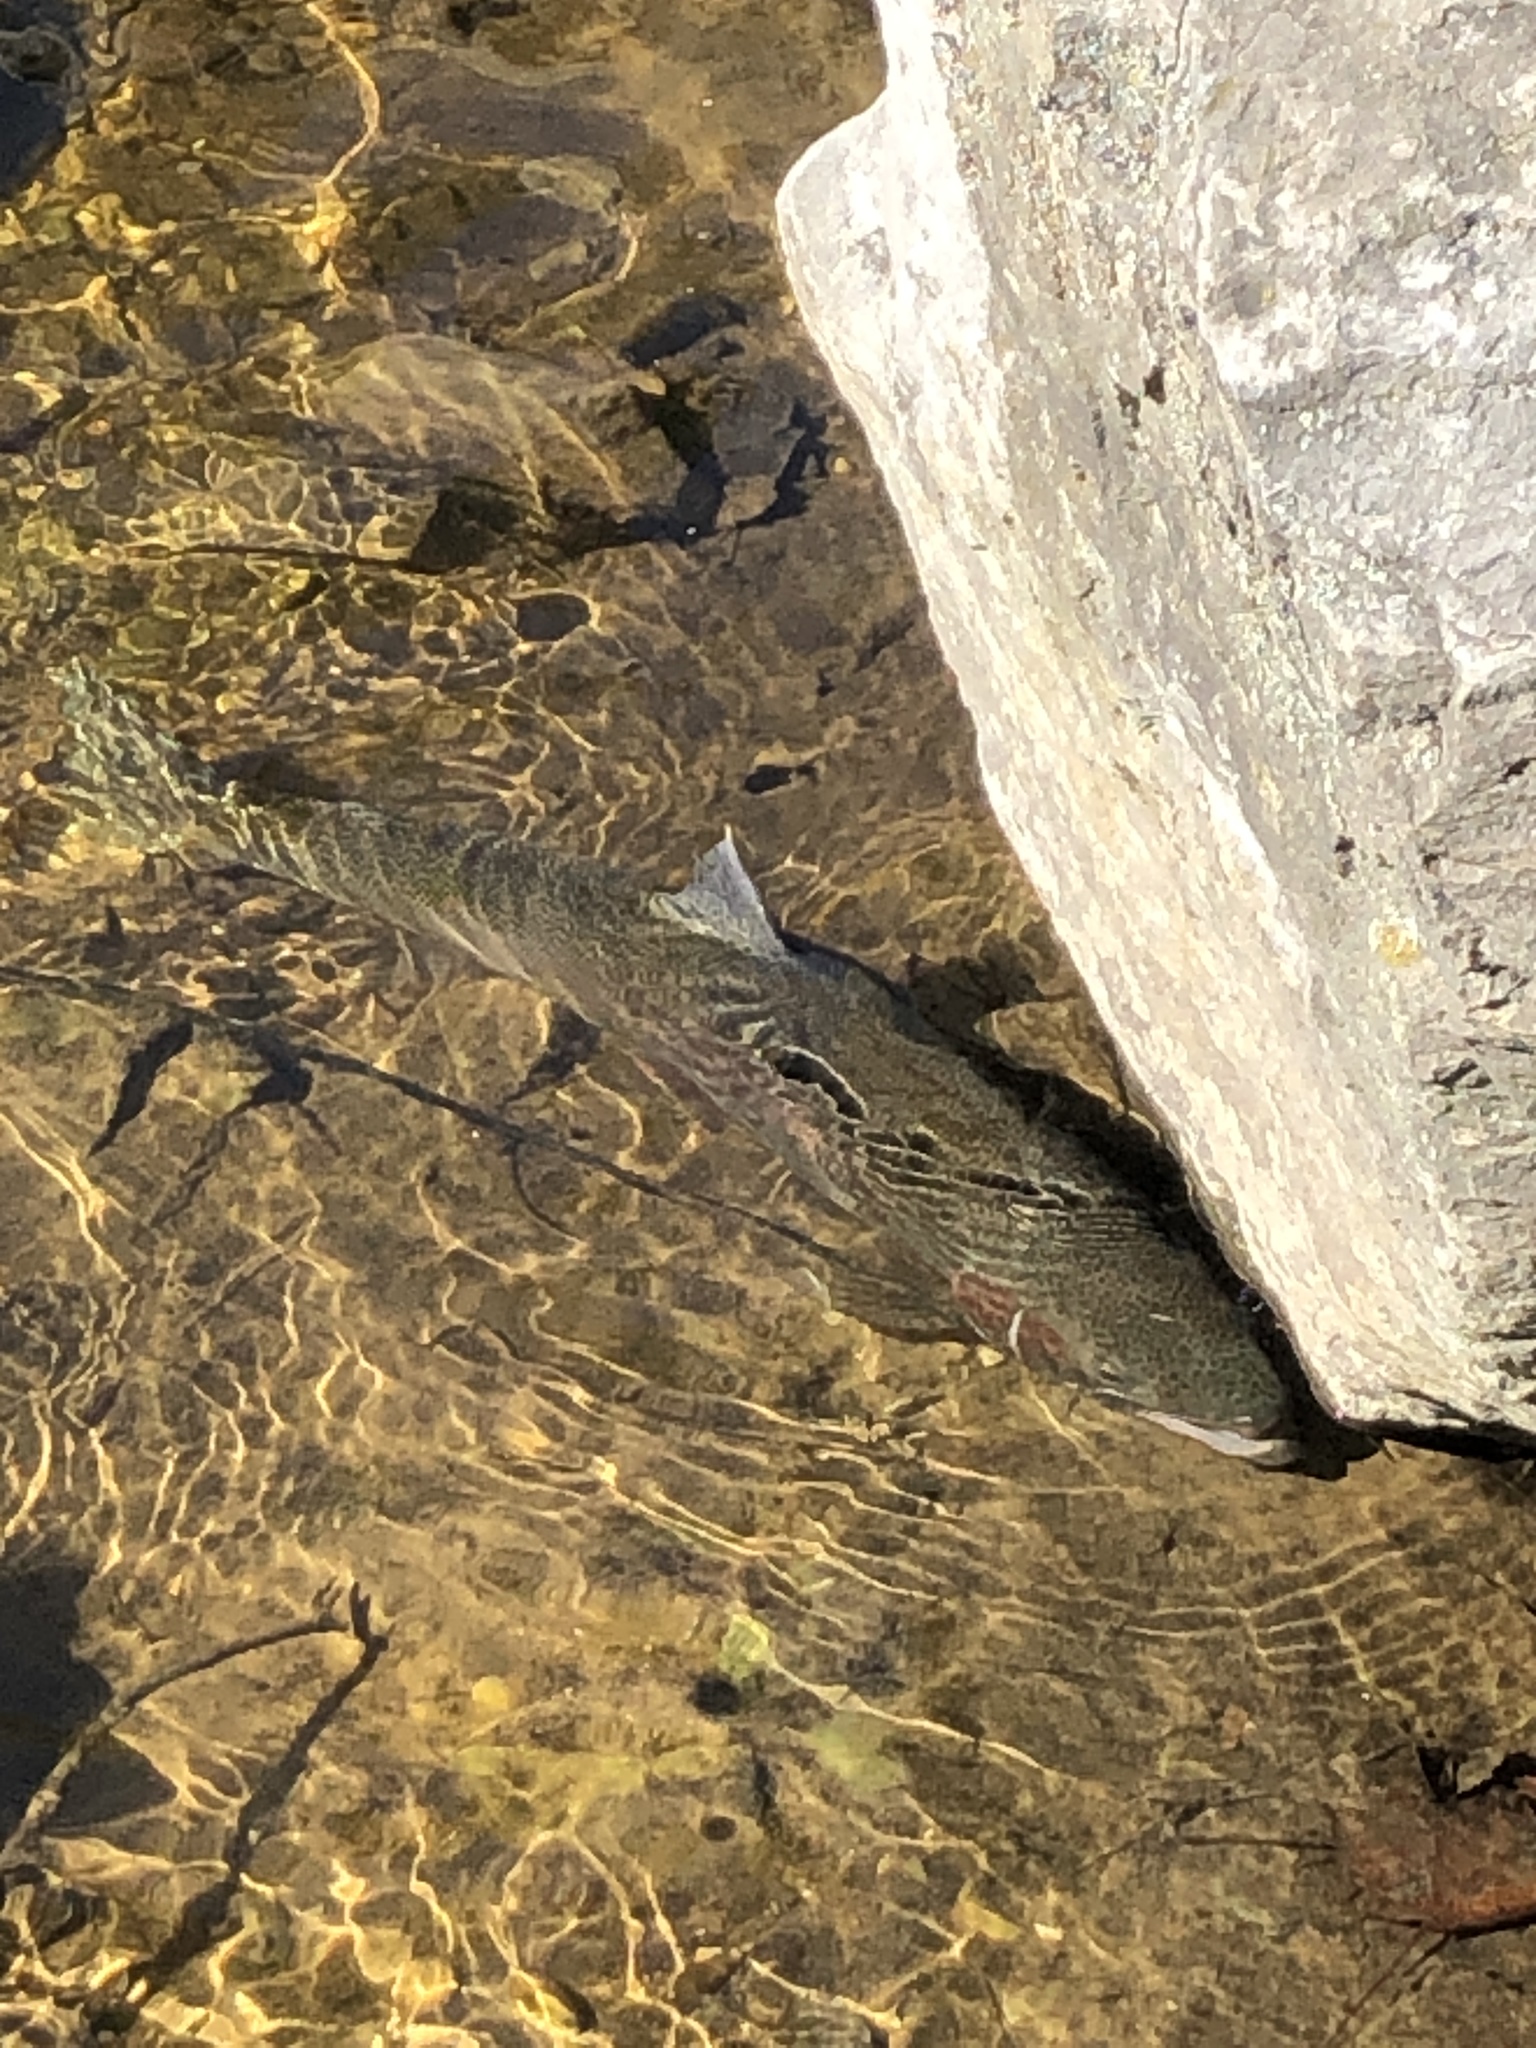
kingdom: Animalia
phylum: Chordata
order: Salmoniformes
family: Salmonidae
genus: Oncorhynchus
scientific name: Oncorhynchus mykiss
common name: Rainbow trout
